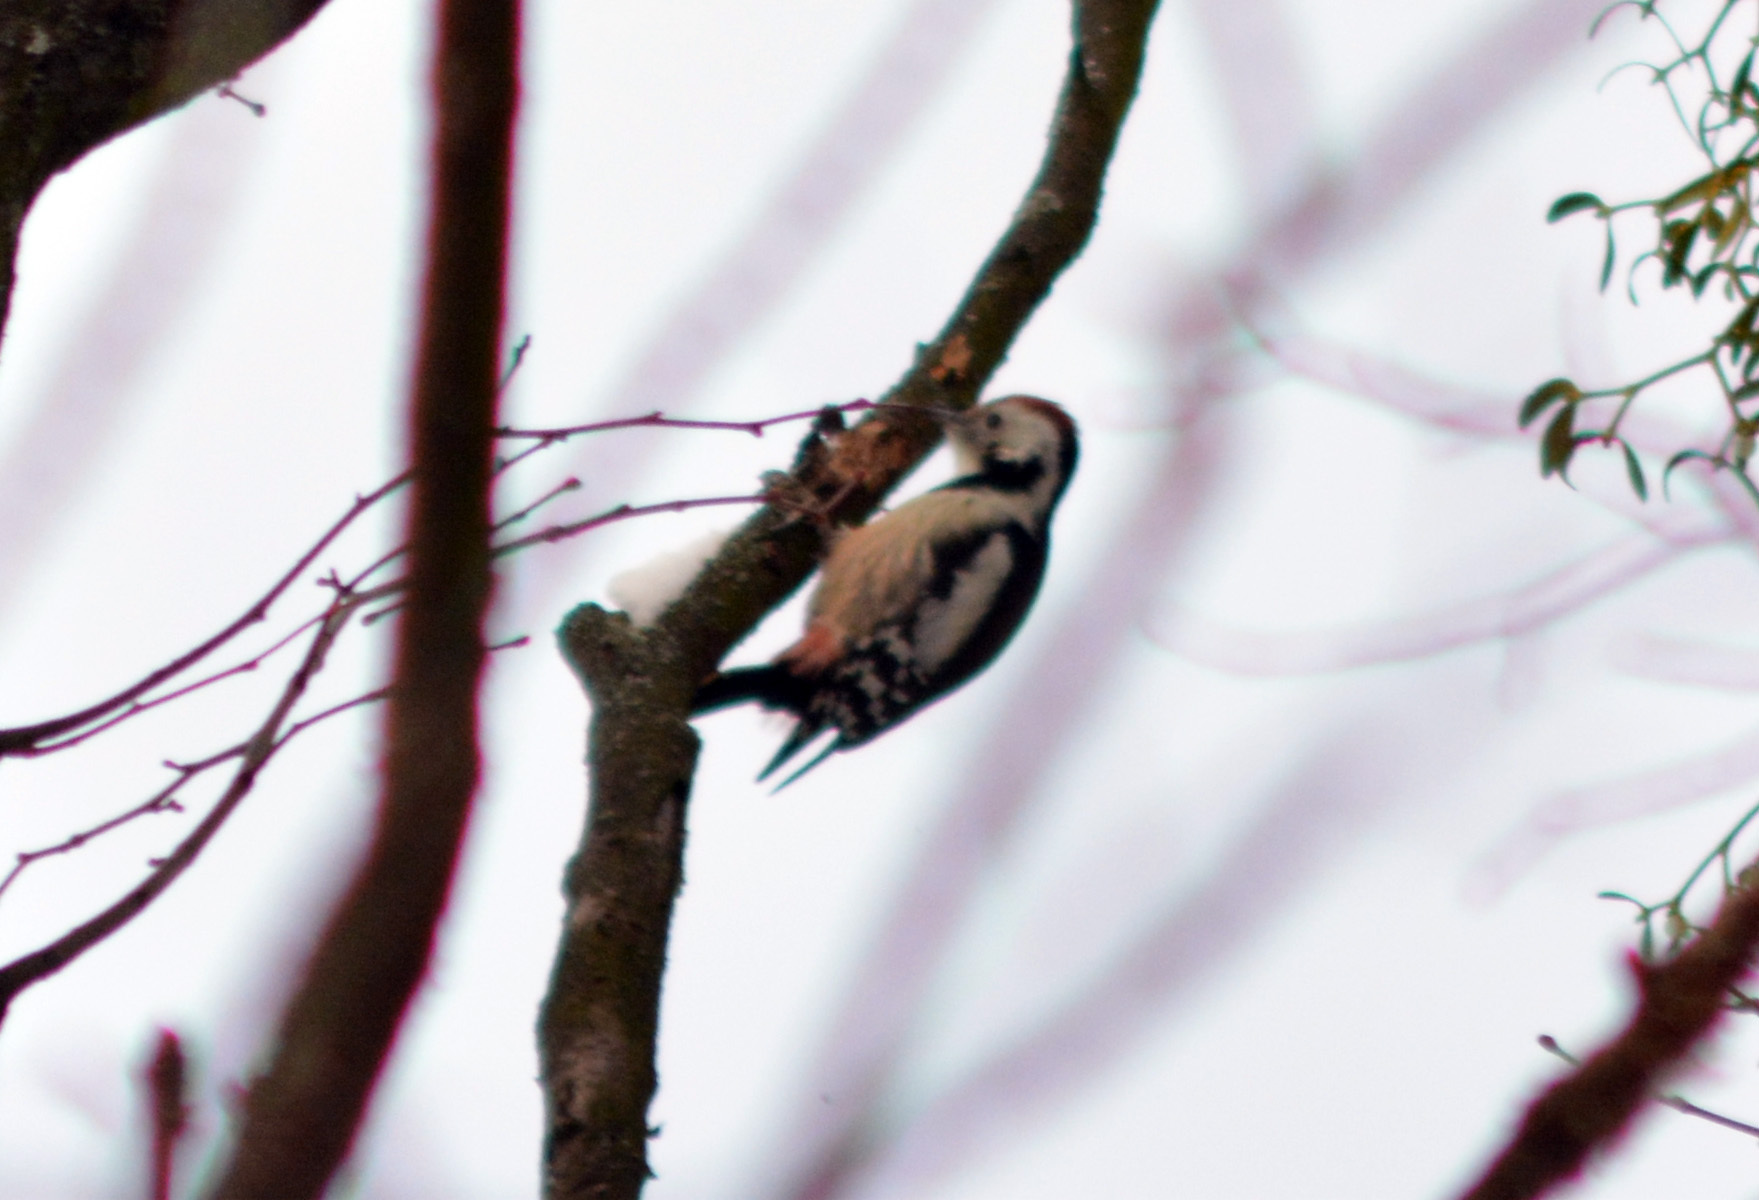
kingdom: Animalia
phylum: Chordata
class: Aves
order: Piciformes
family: Picidae
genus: Dendrocoptes
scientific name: Dendrocoptes medius
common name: Middle spotted woodpecker
